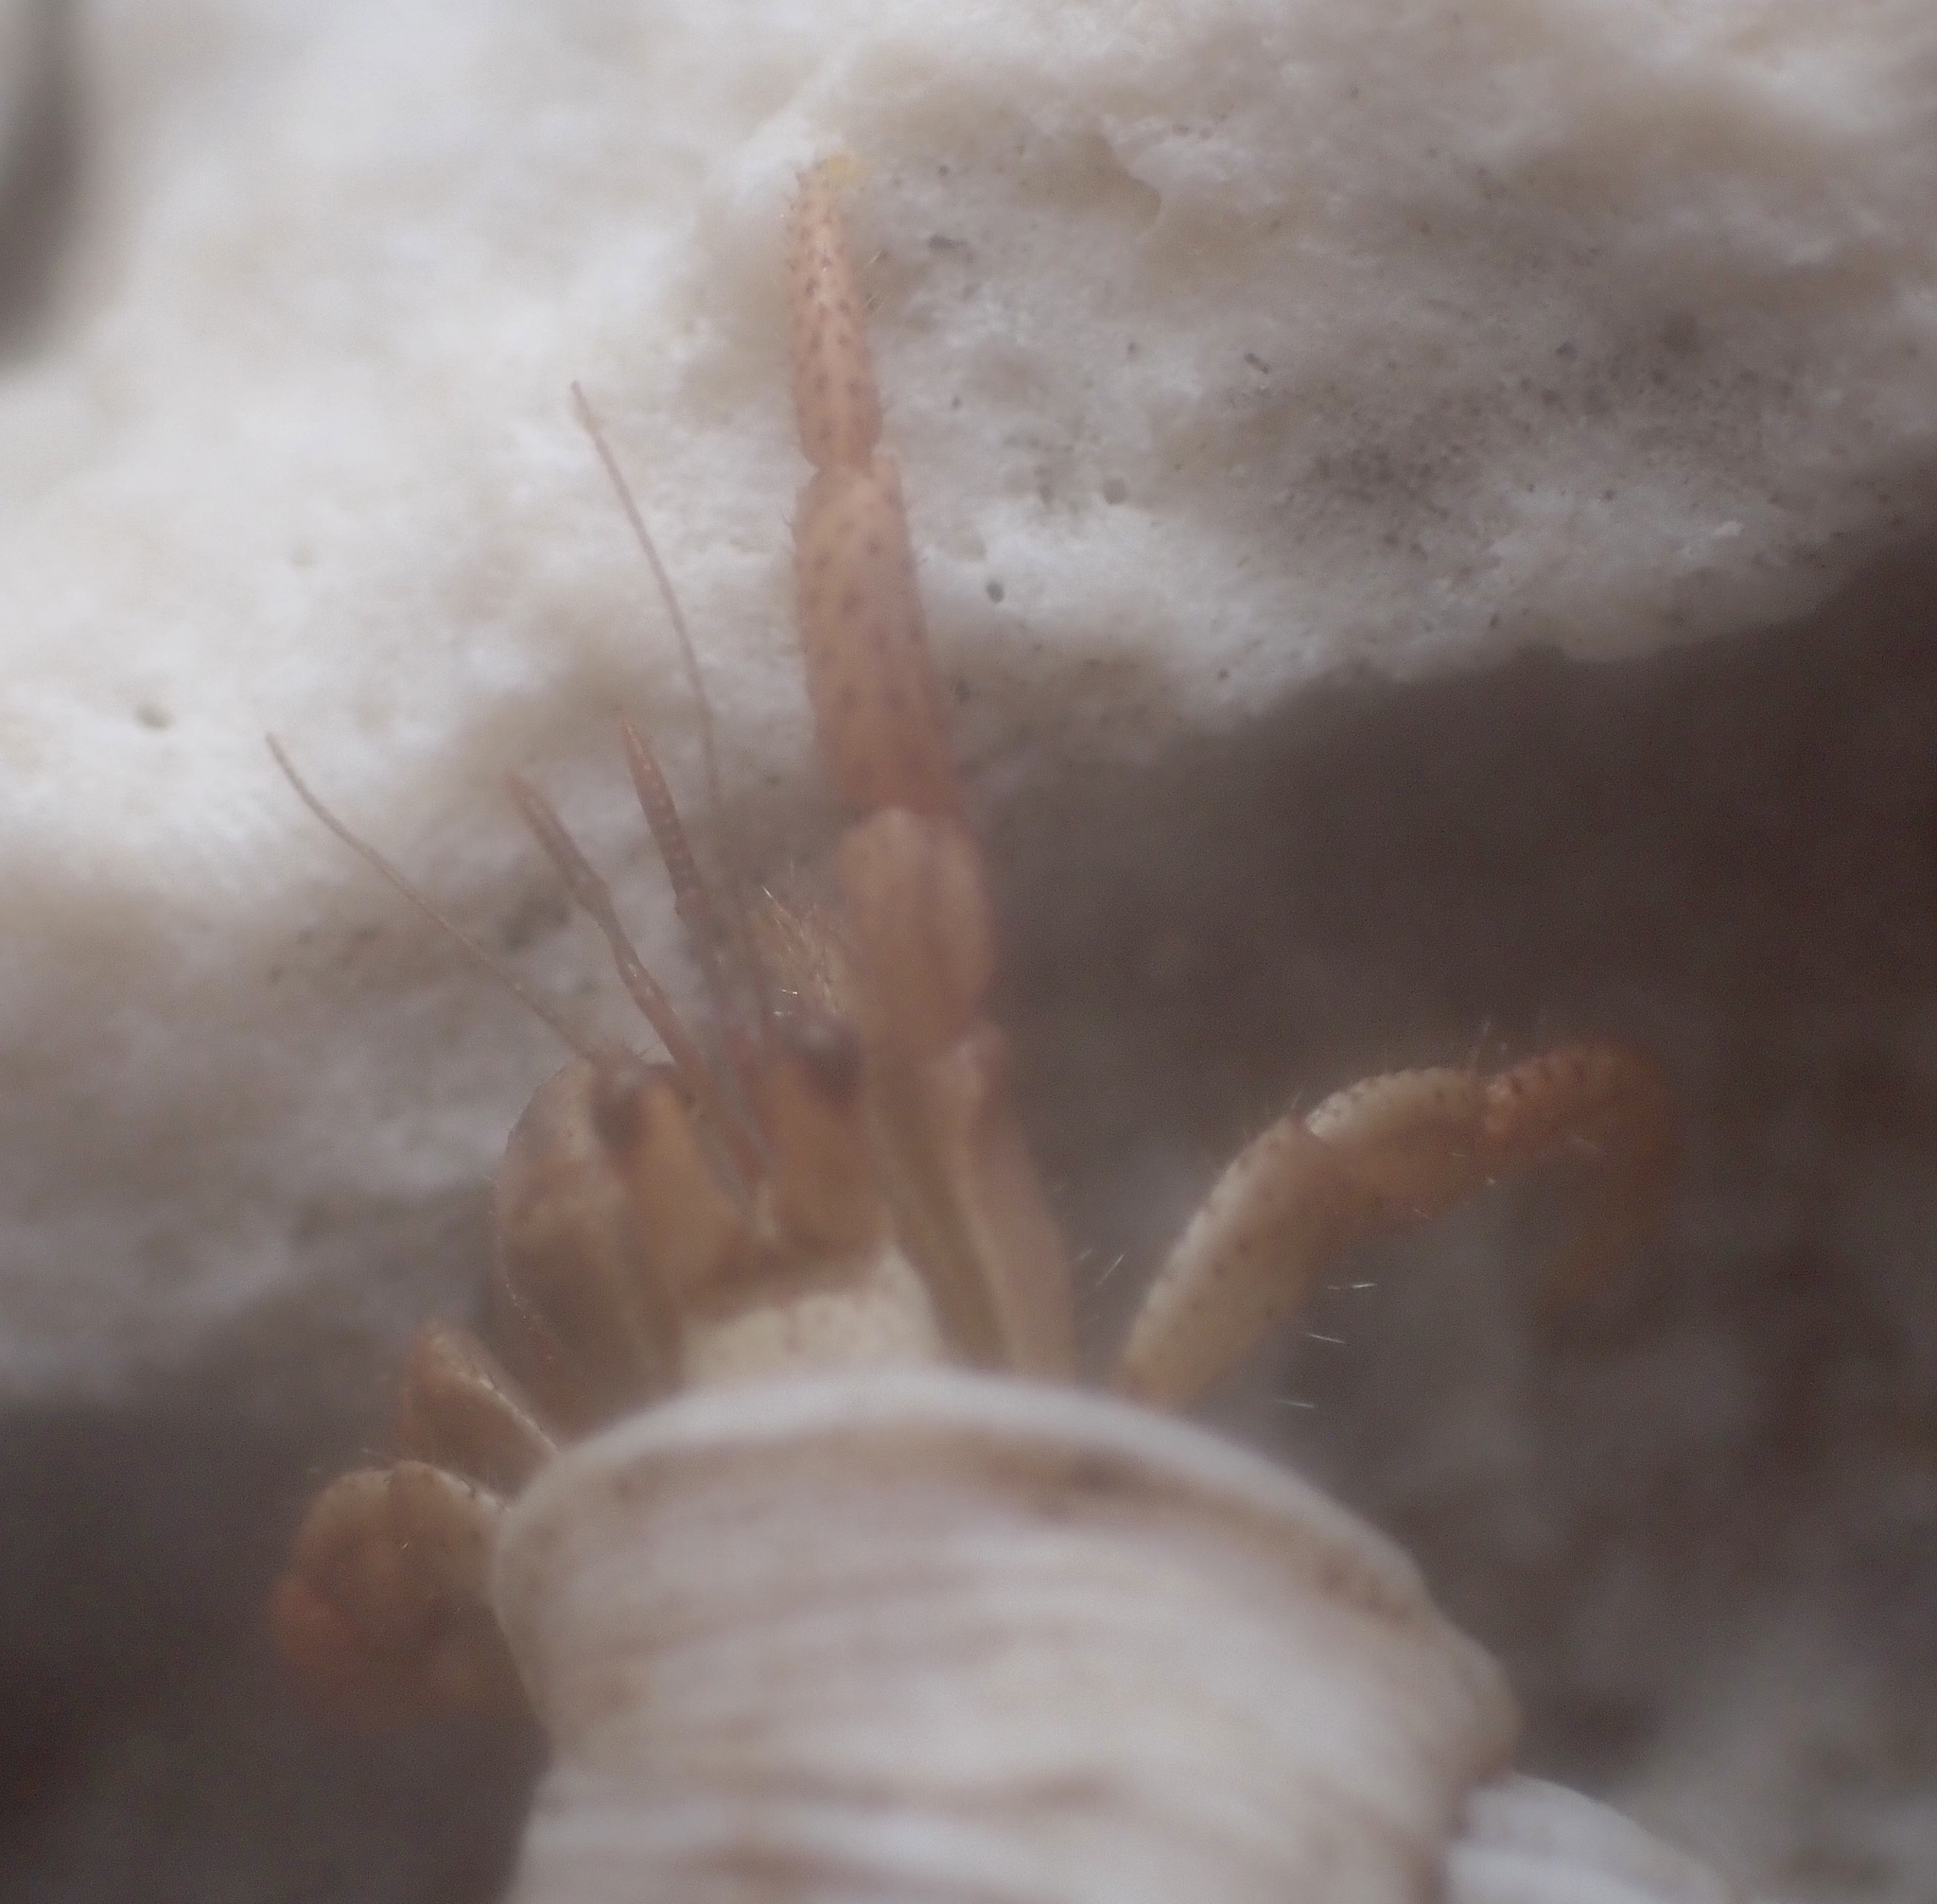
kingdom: Animalia
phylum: Arthropoda
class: Malacostraca
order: Decapoda
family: Coenobitidae
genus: Coenobita
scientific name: Coenobita clypeatus
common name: Caribbean hermit crab
